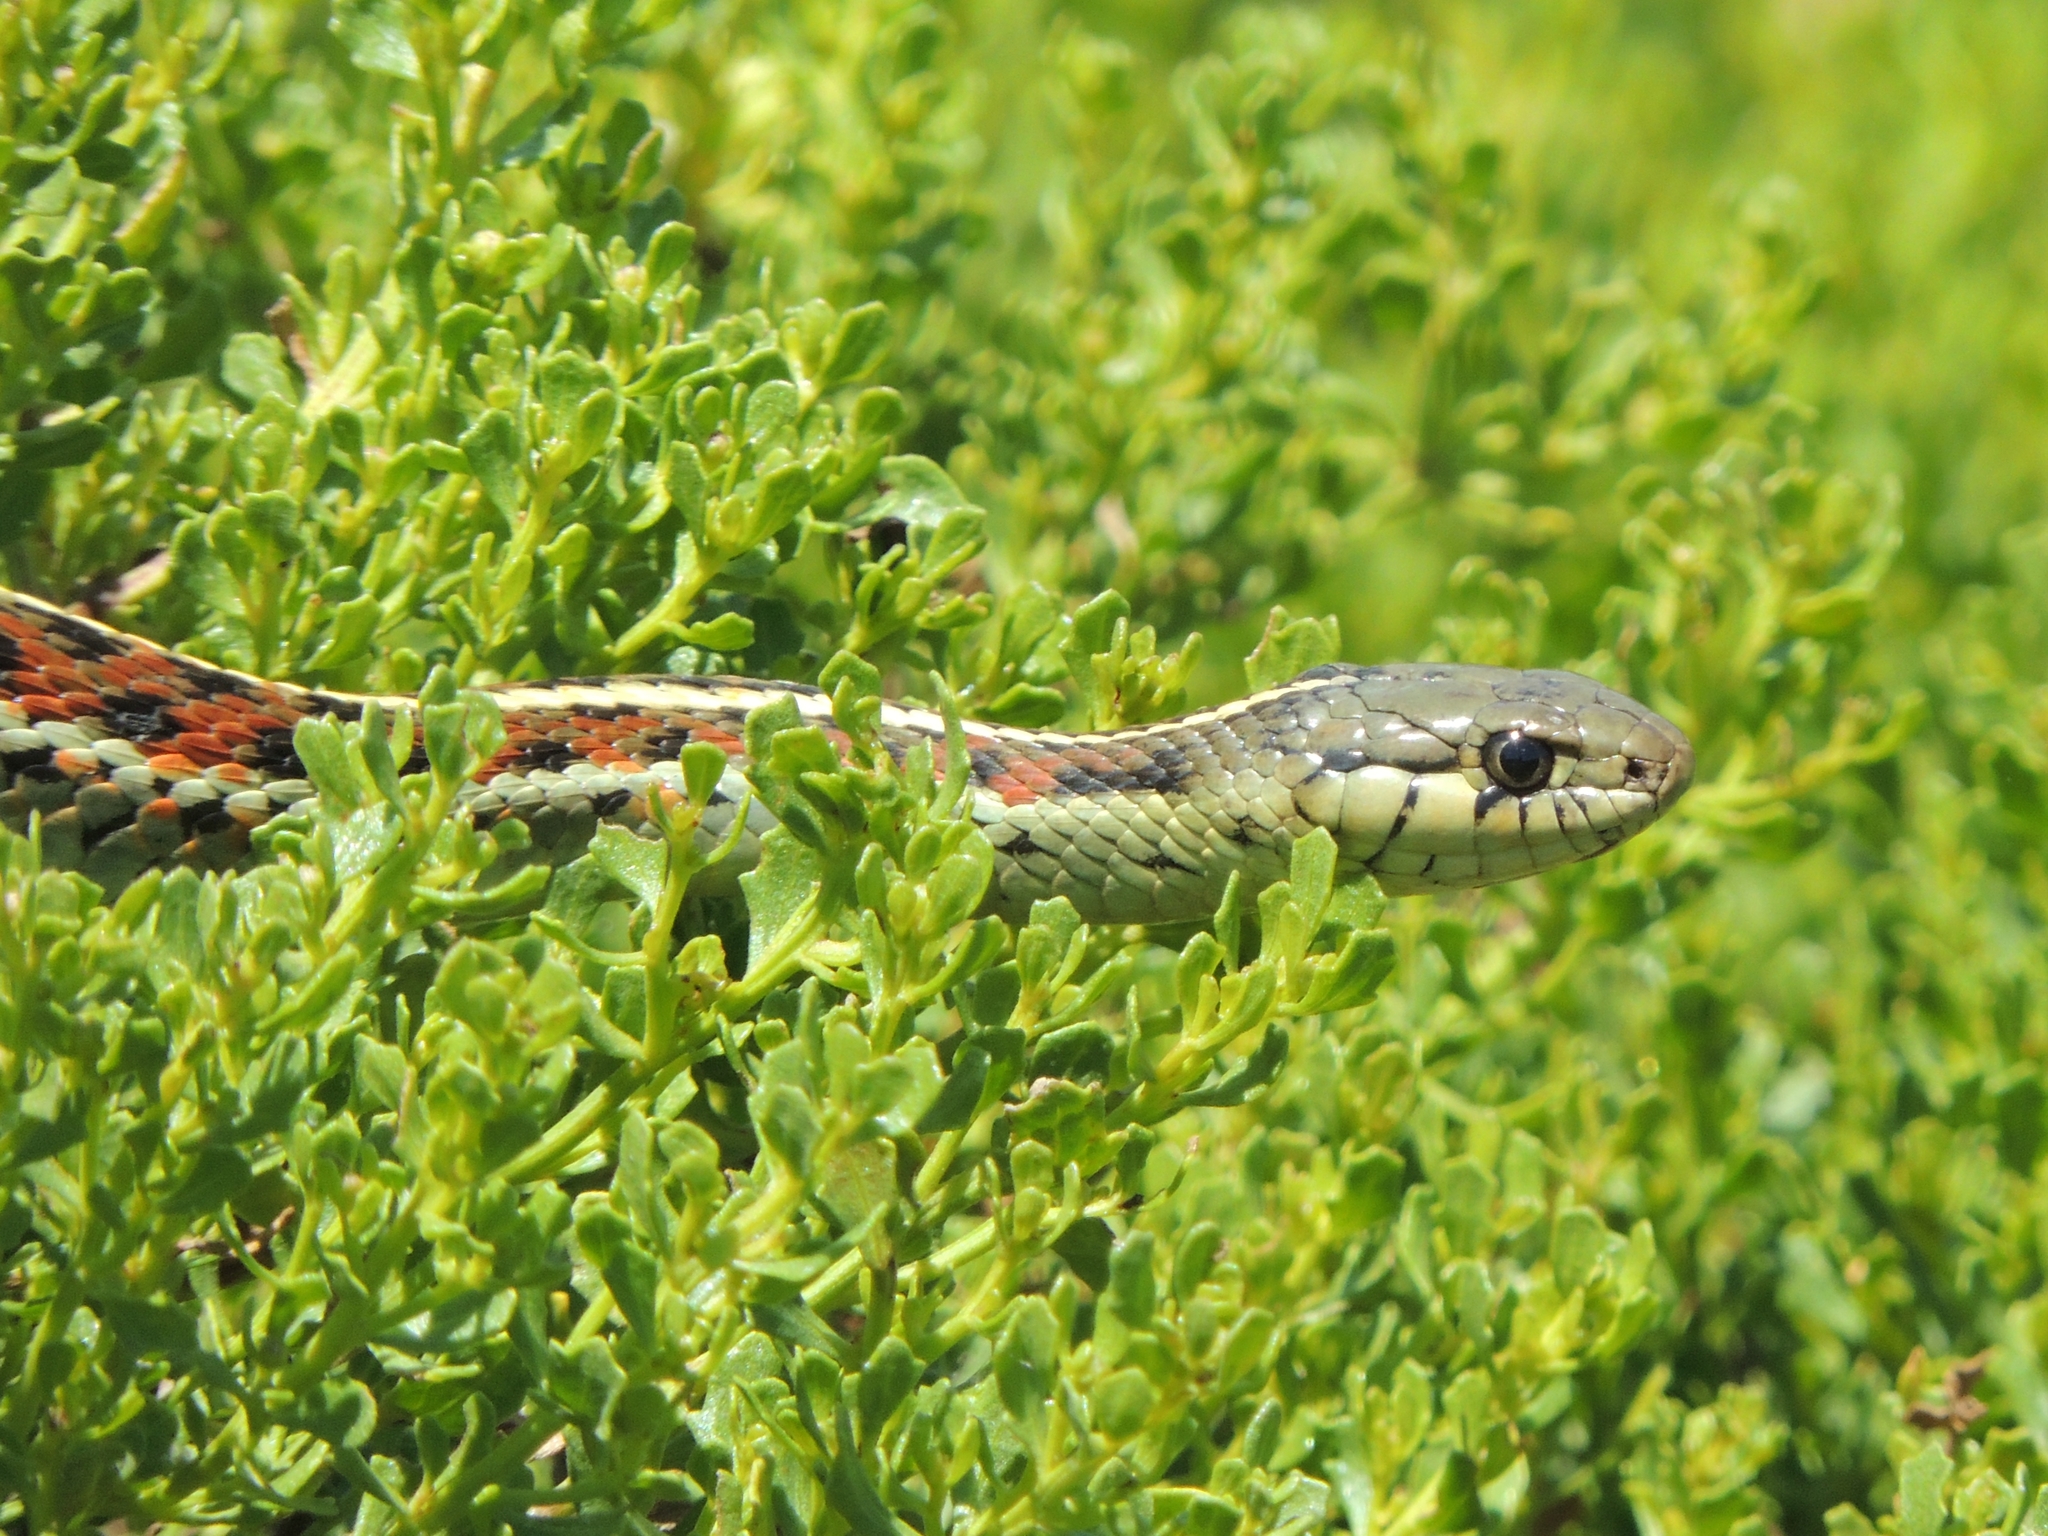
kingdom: Animalia
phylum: Chordata
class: Squamata
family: Colubridae
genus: Thamnophis
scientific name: Thamnophis elegans
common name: Western terrestrial garter snake
